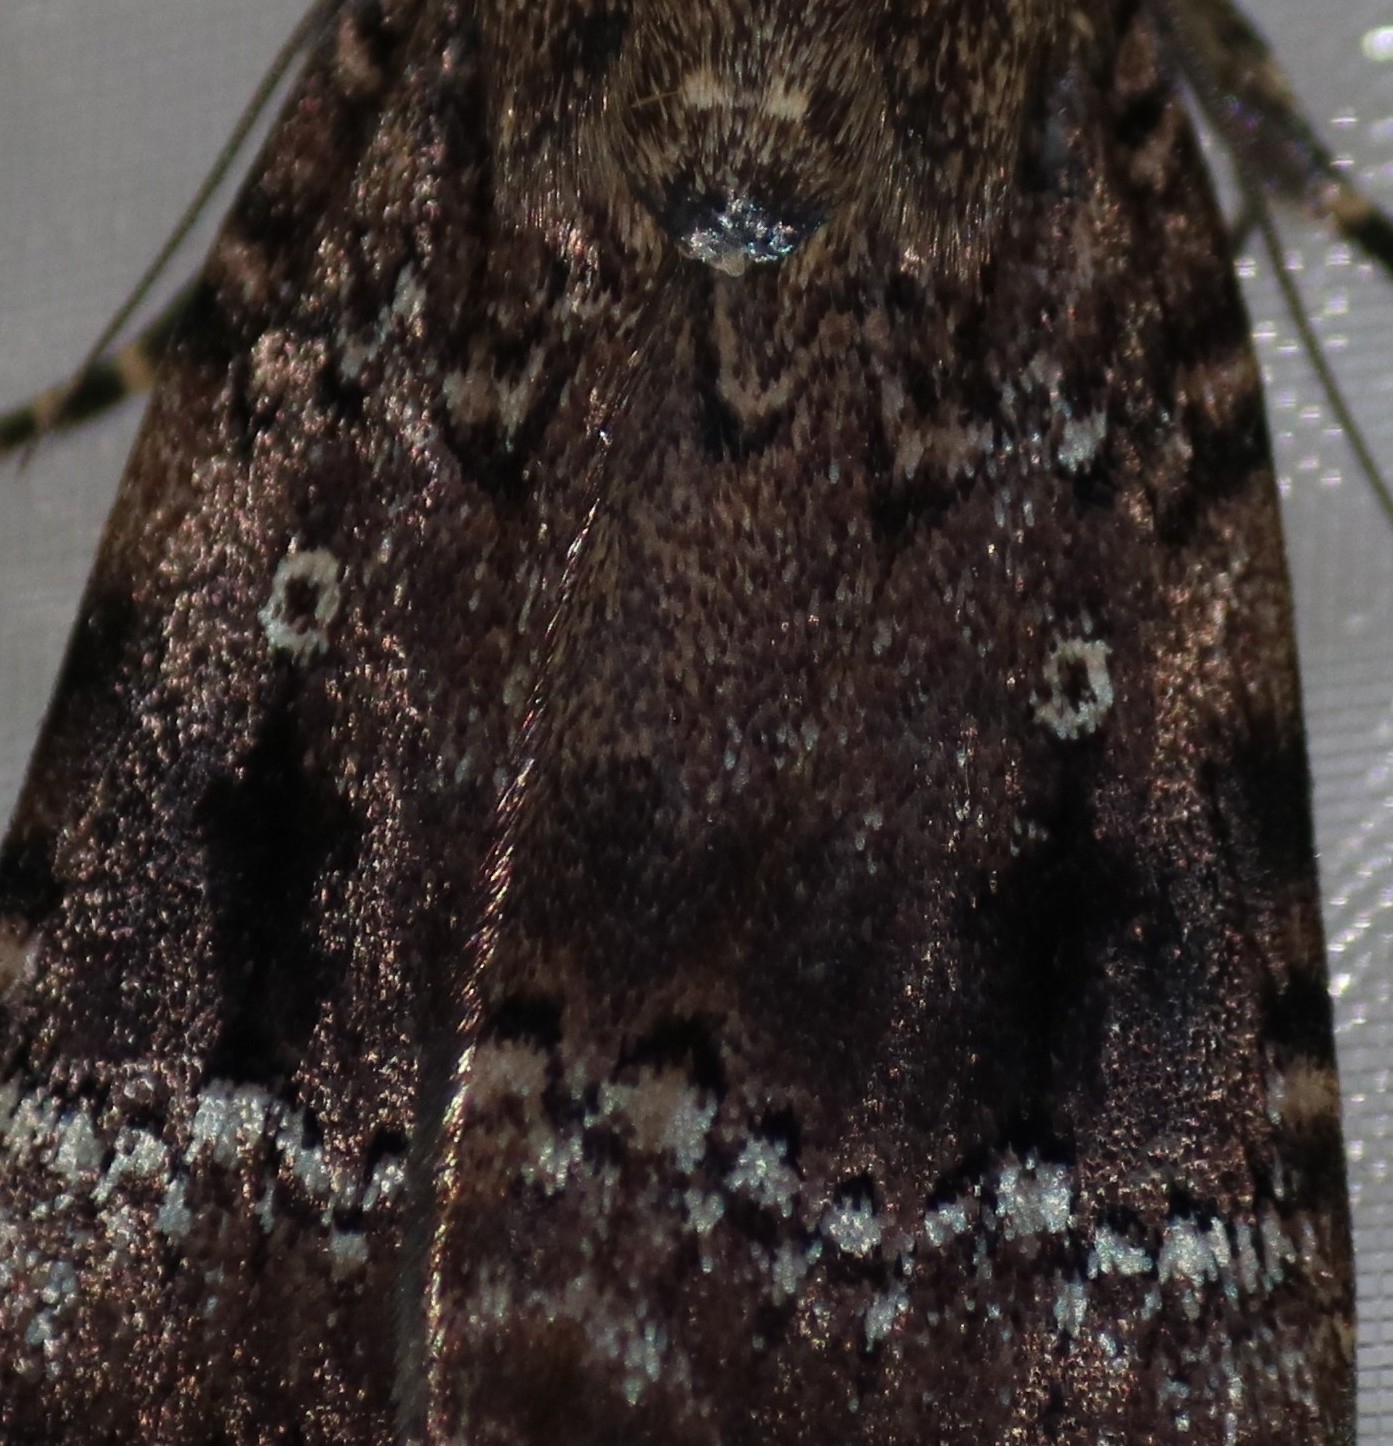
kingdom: Animalia
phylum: Arthropoda
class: Insecta
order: Lepidoptera
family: Noctuidae
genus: Amphipyra
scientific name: Amphipyra pyramidea
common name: Copper underwing
